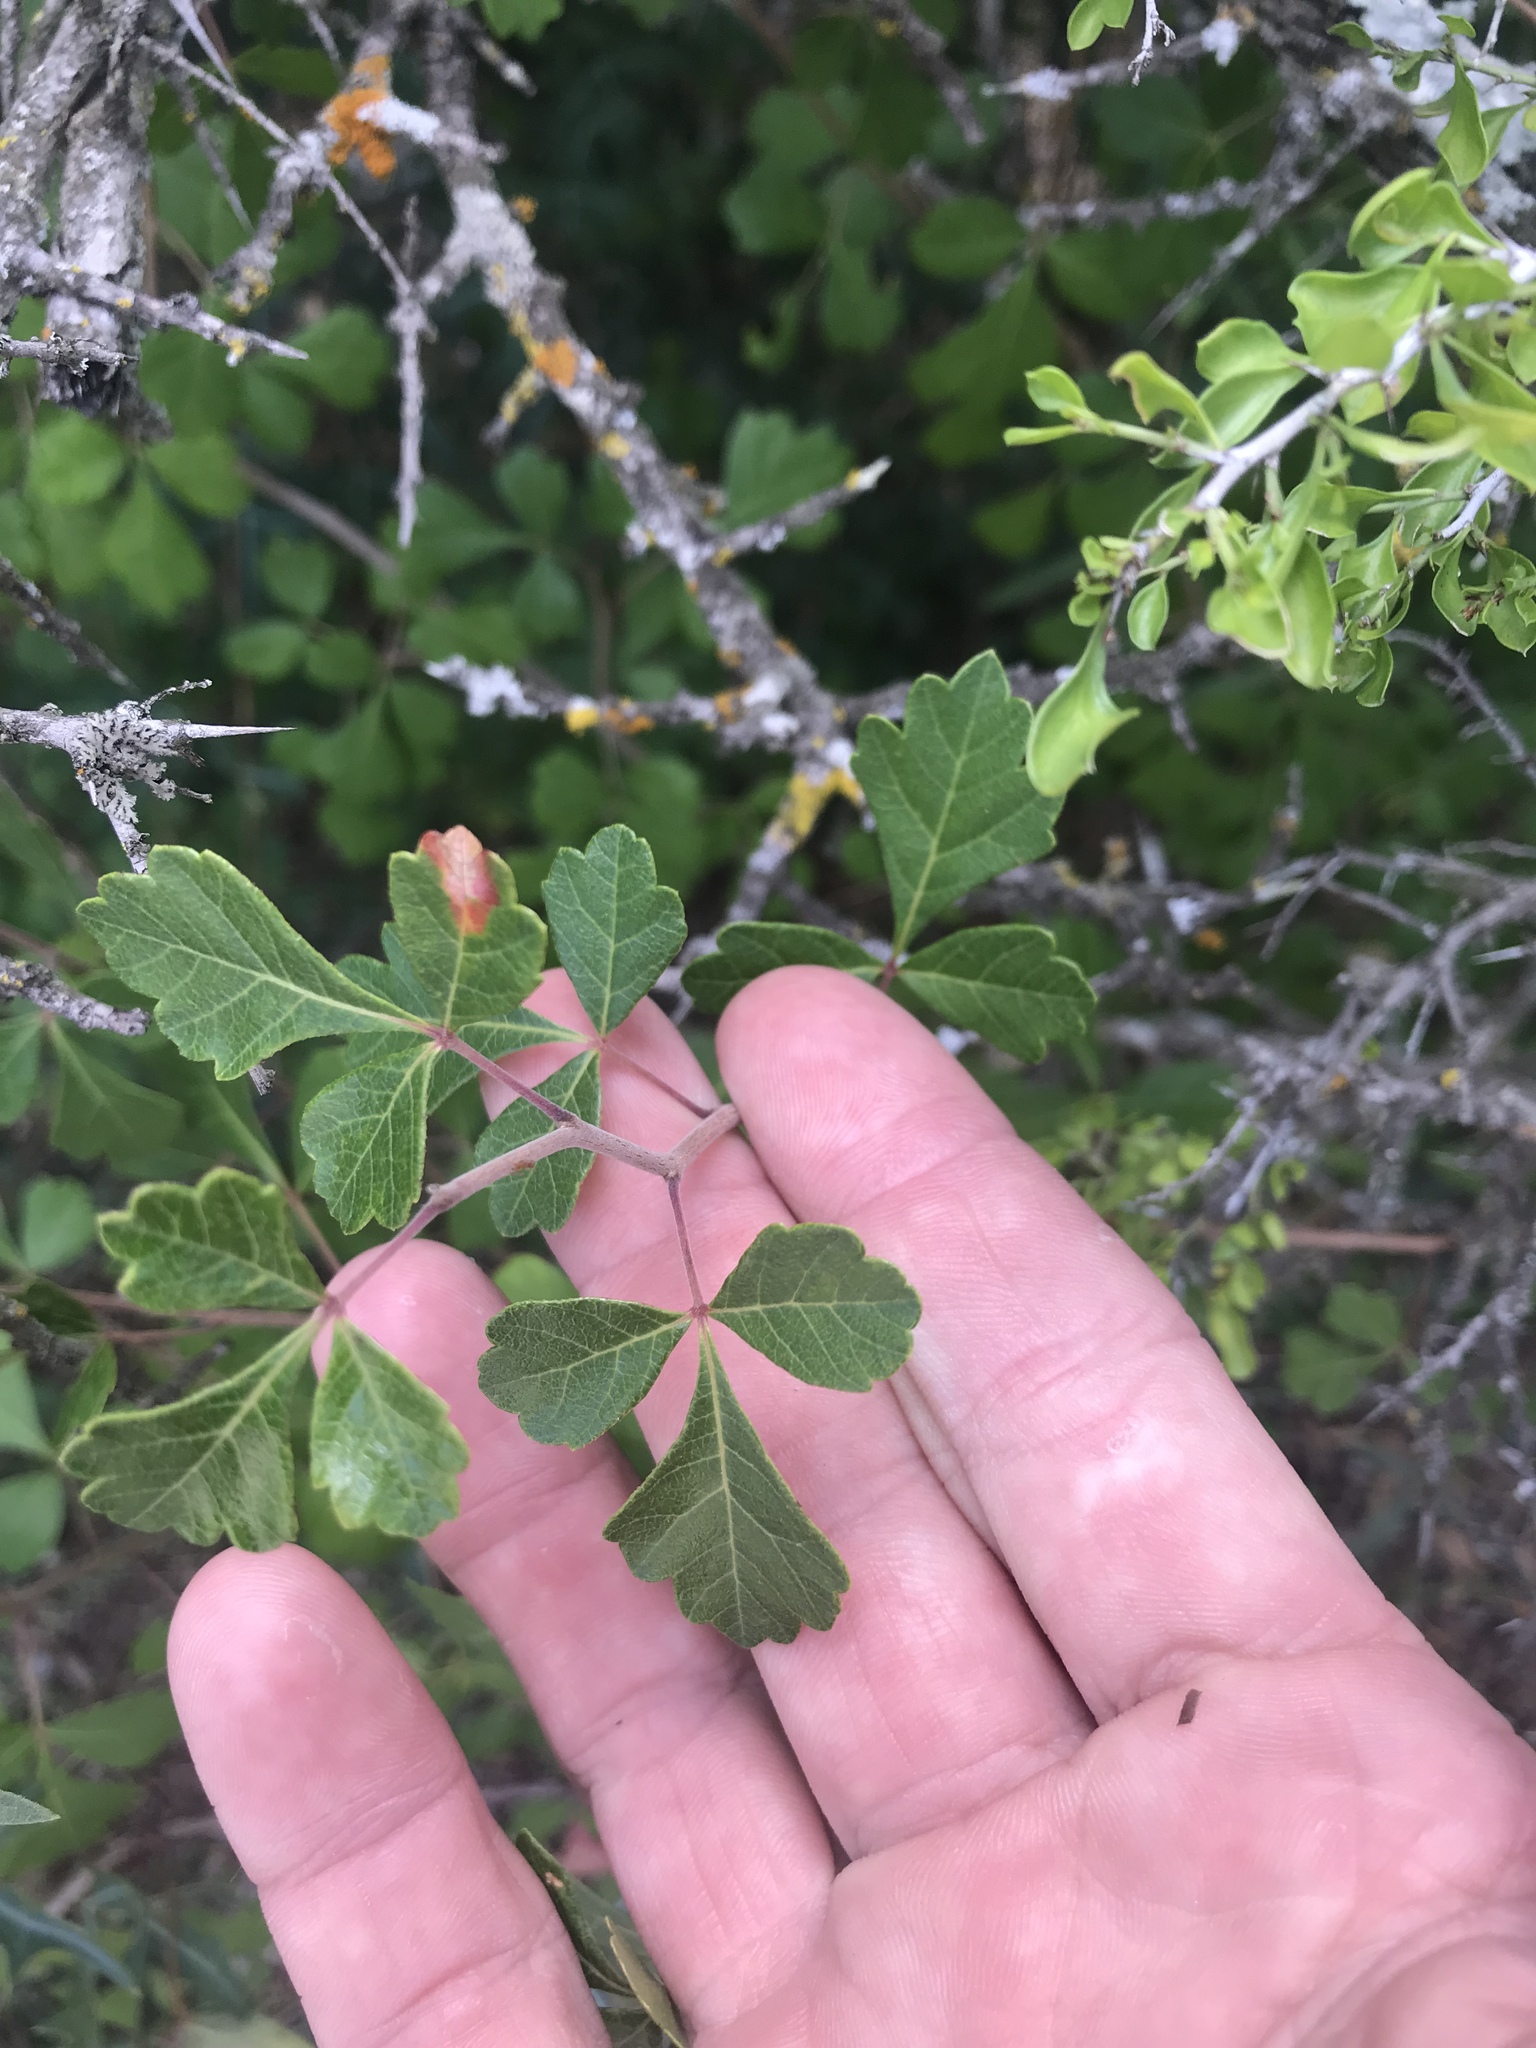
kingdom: Plantae
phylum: Tracheophyta
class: Magnoliopsida
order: Sapindales
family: Anacardiaceae
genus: Rhus
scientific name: Rhus aromatica
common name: Aromatic sumac
